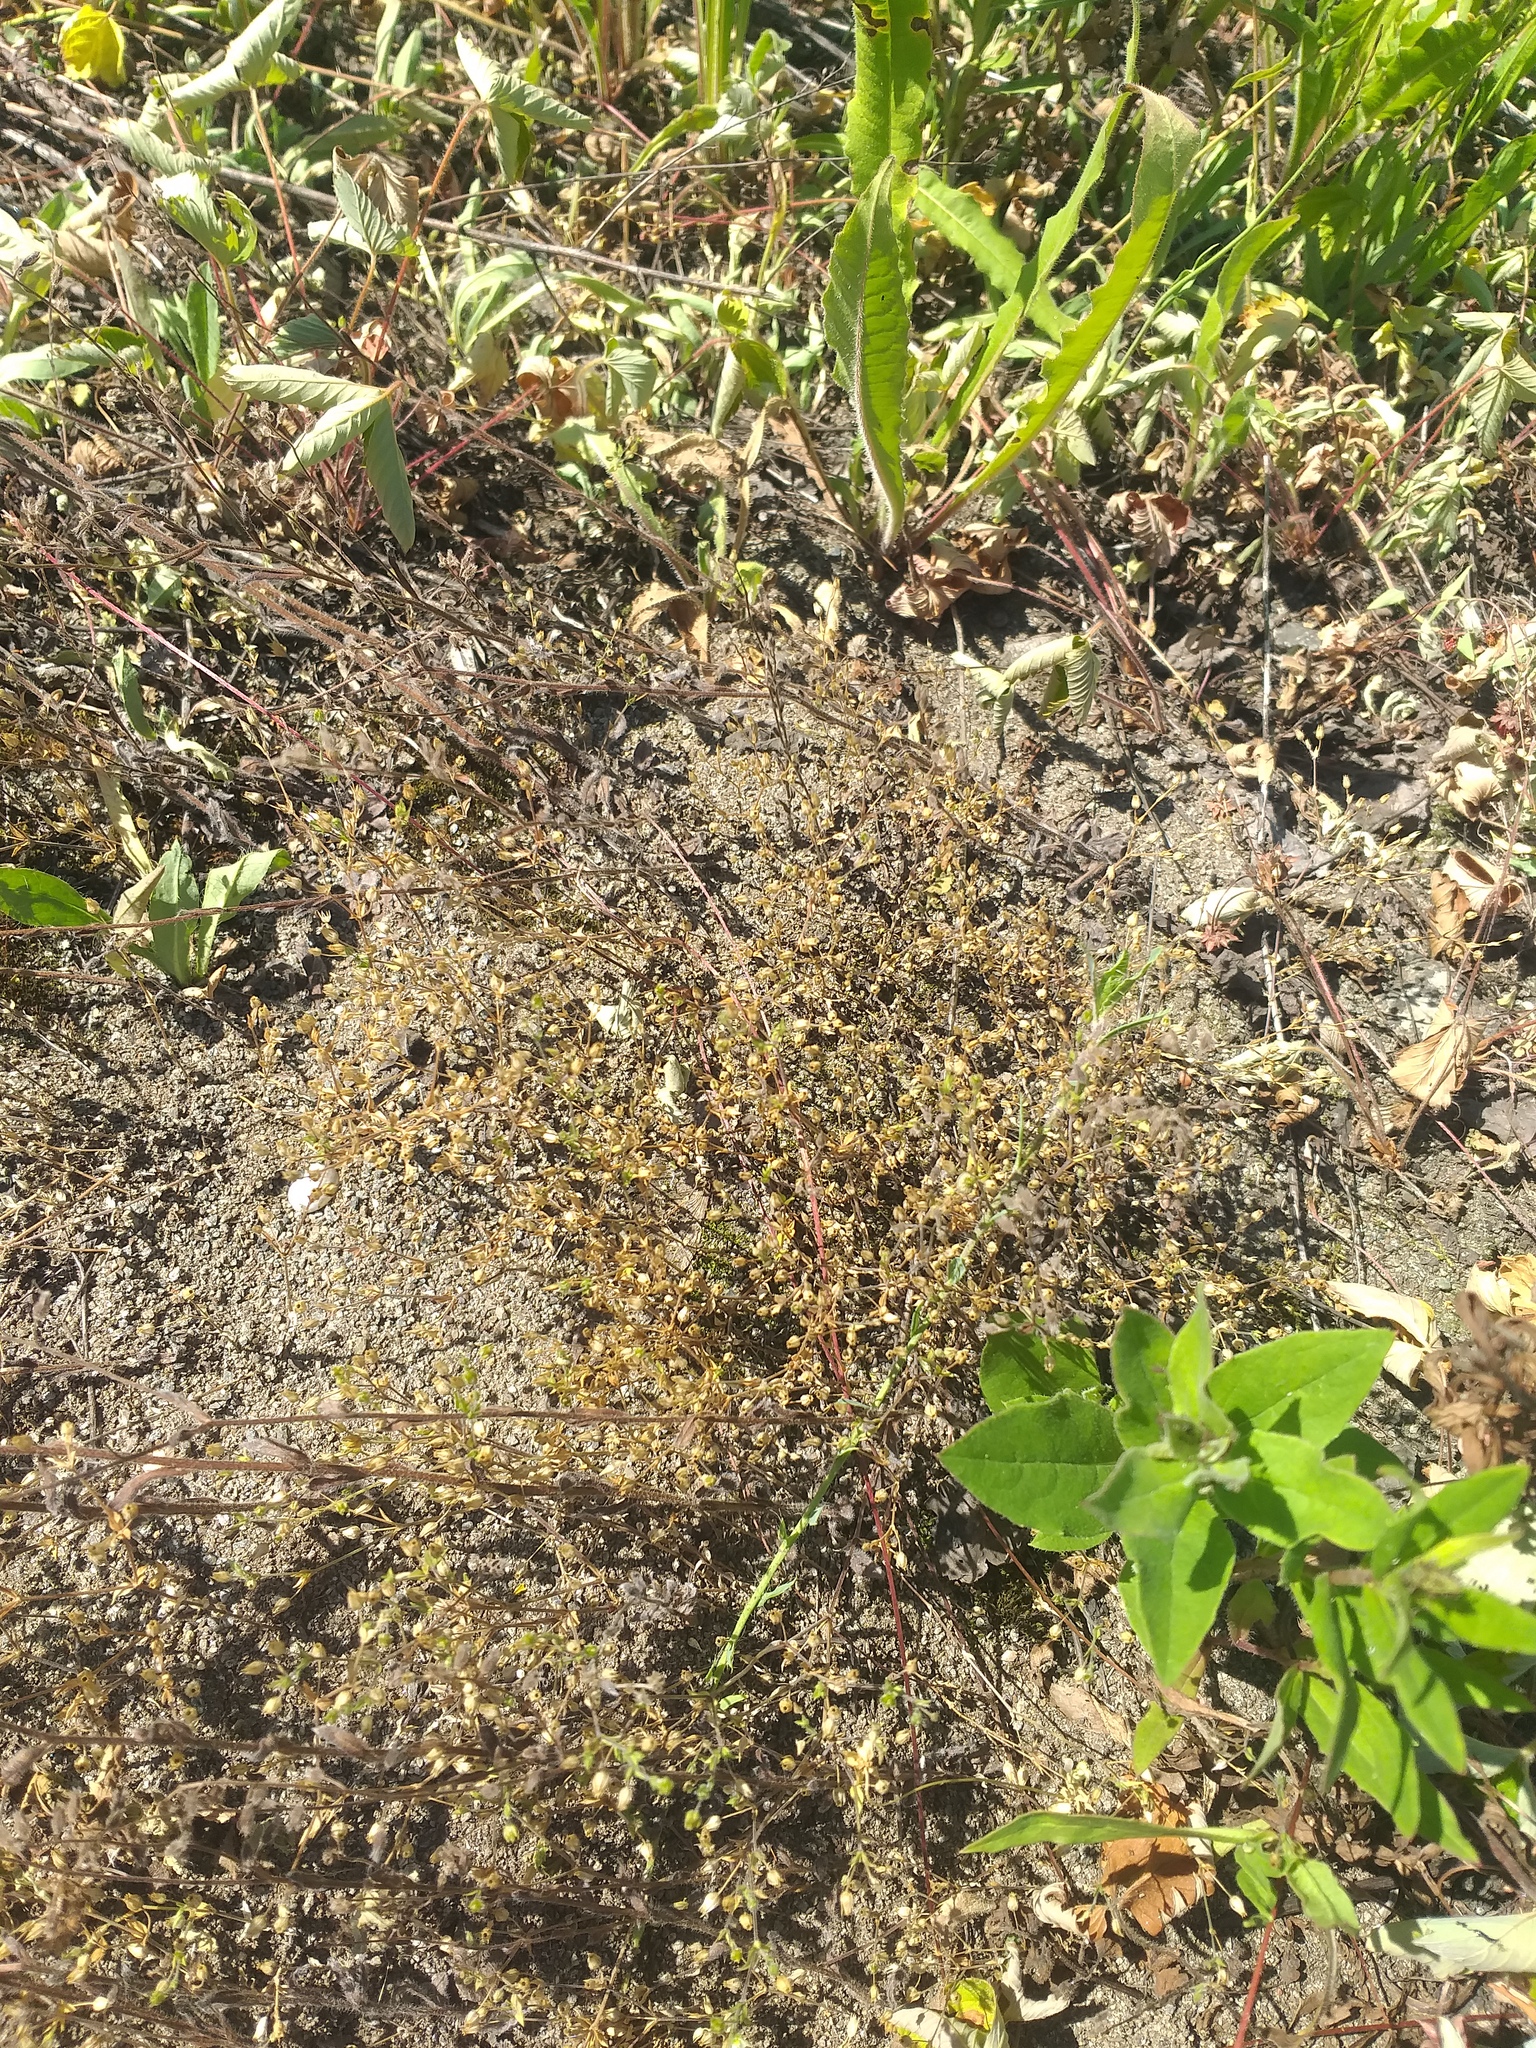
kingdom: Plantae
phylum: Tracheophyta
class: Magnoliopsida
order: Caryophyllales
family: Caryophyllaceae
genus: Arenaria
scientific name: Arenaria serpyllifolia
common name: Thyme-leaved sandwort
